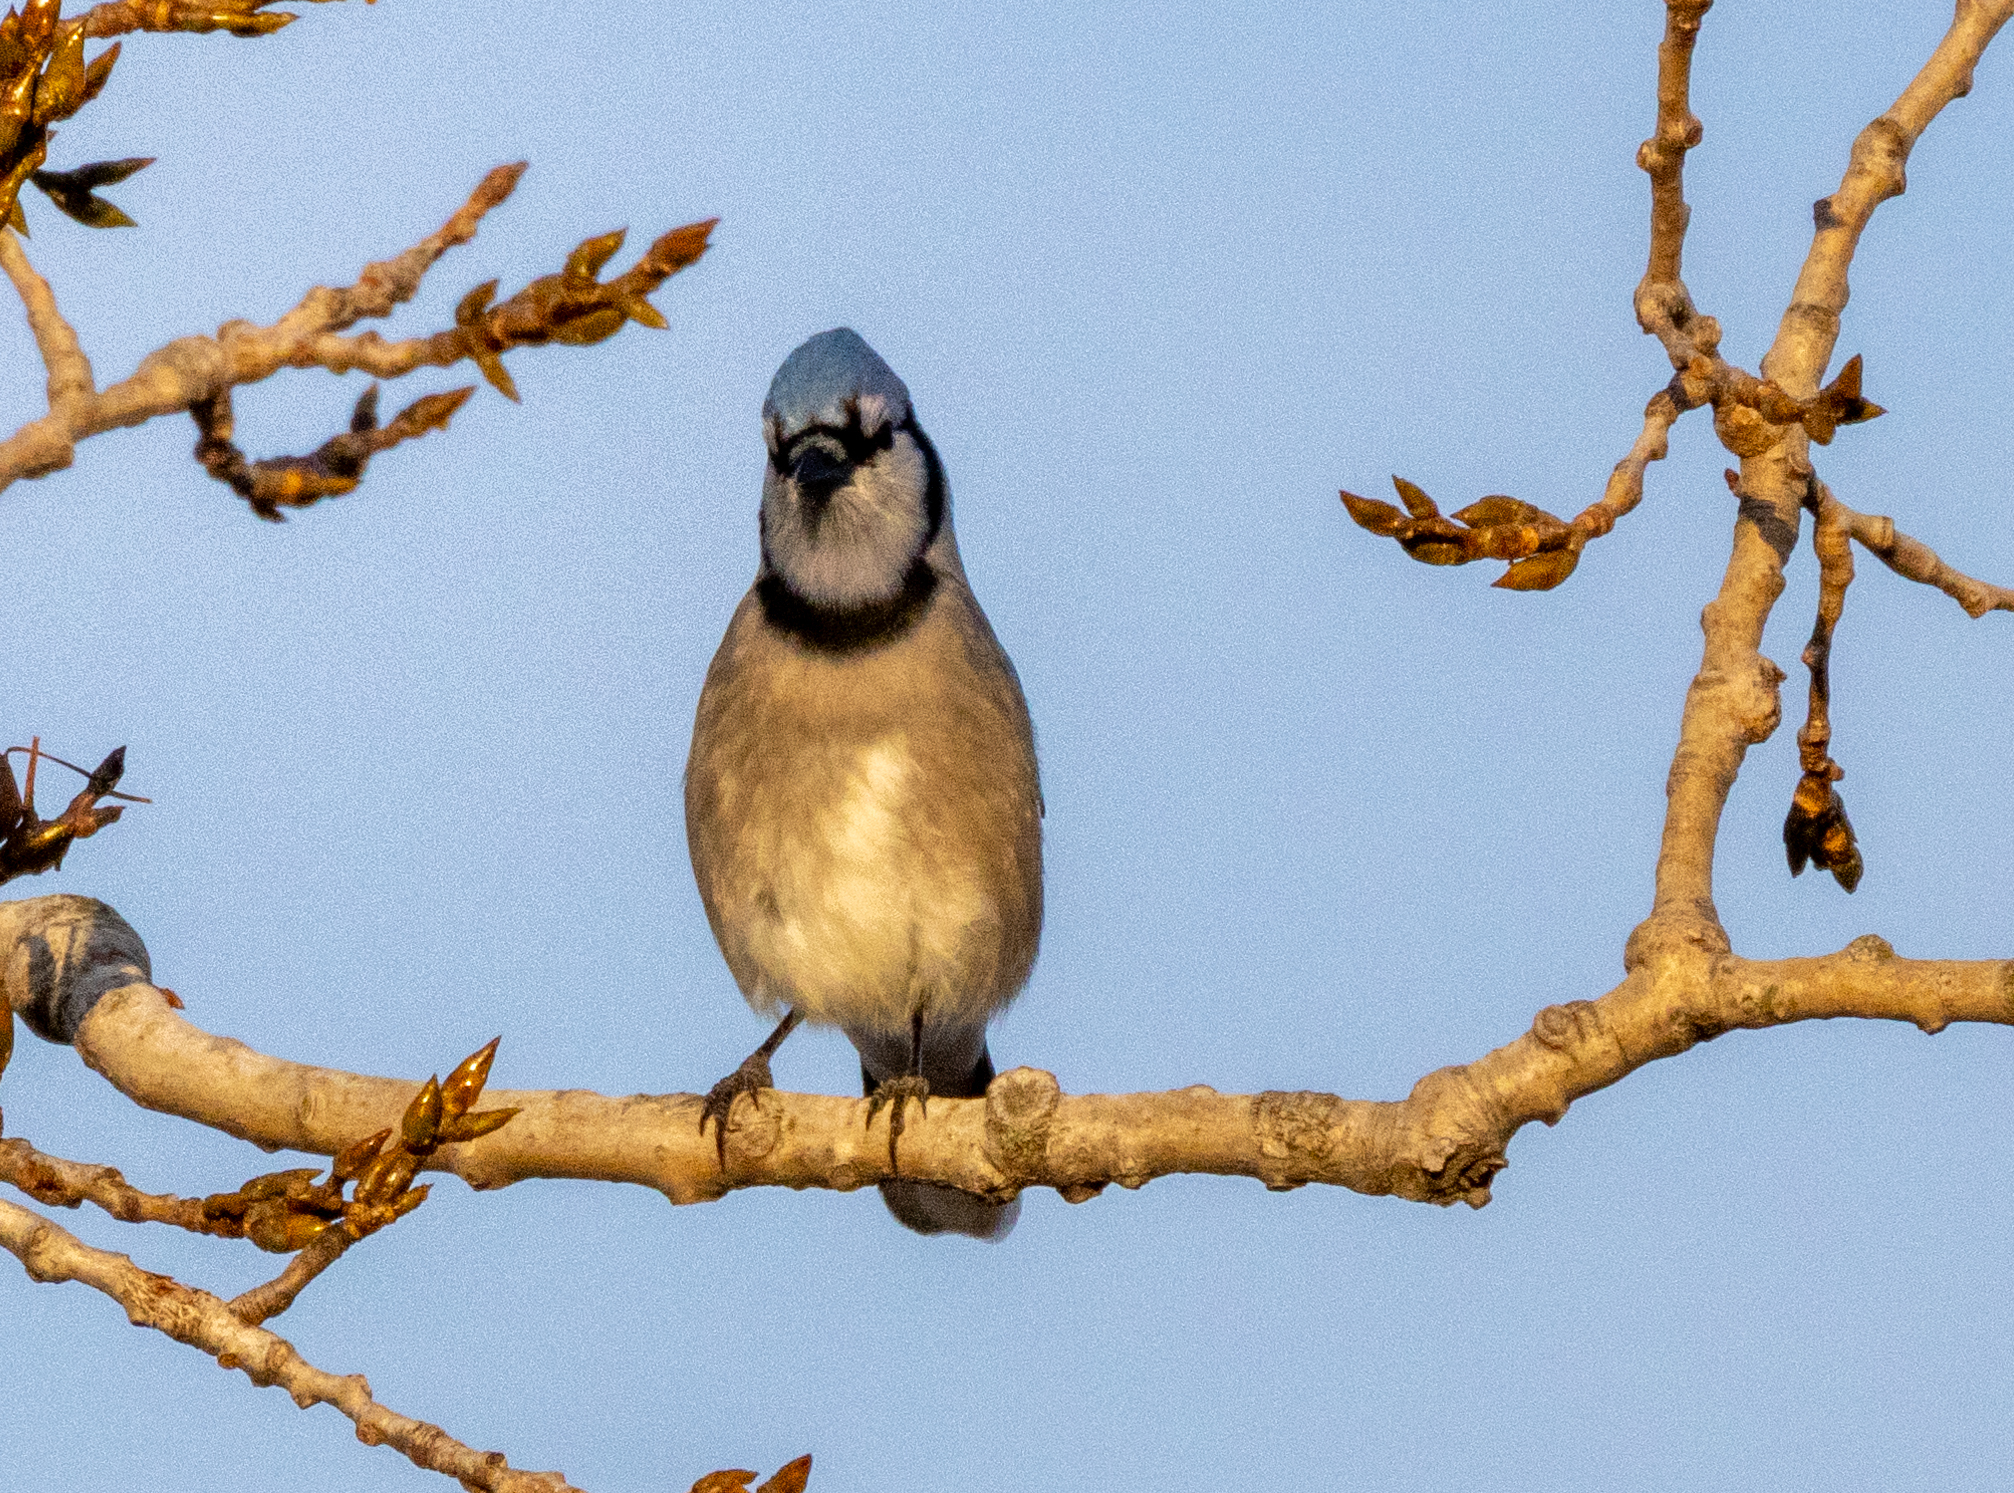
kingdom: Animalia
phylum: Chordata
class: Aves
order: Passeriformes
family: Corvidae
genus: Cyanocitta
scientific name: Cyanocitta cristata
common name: Blue jay
